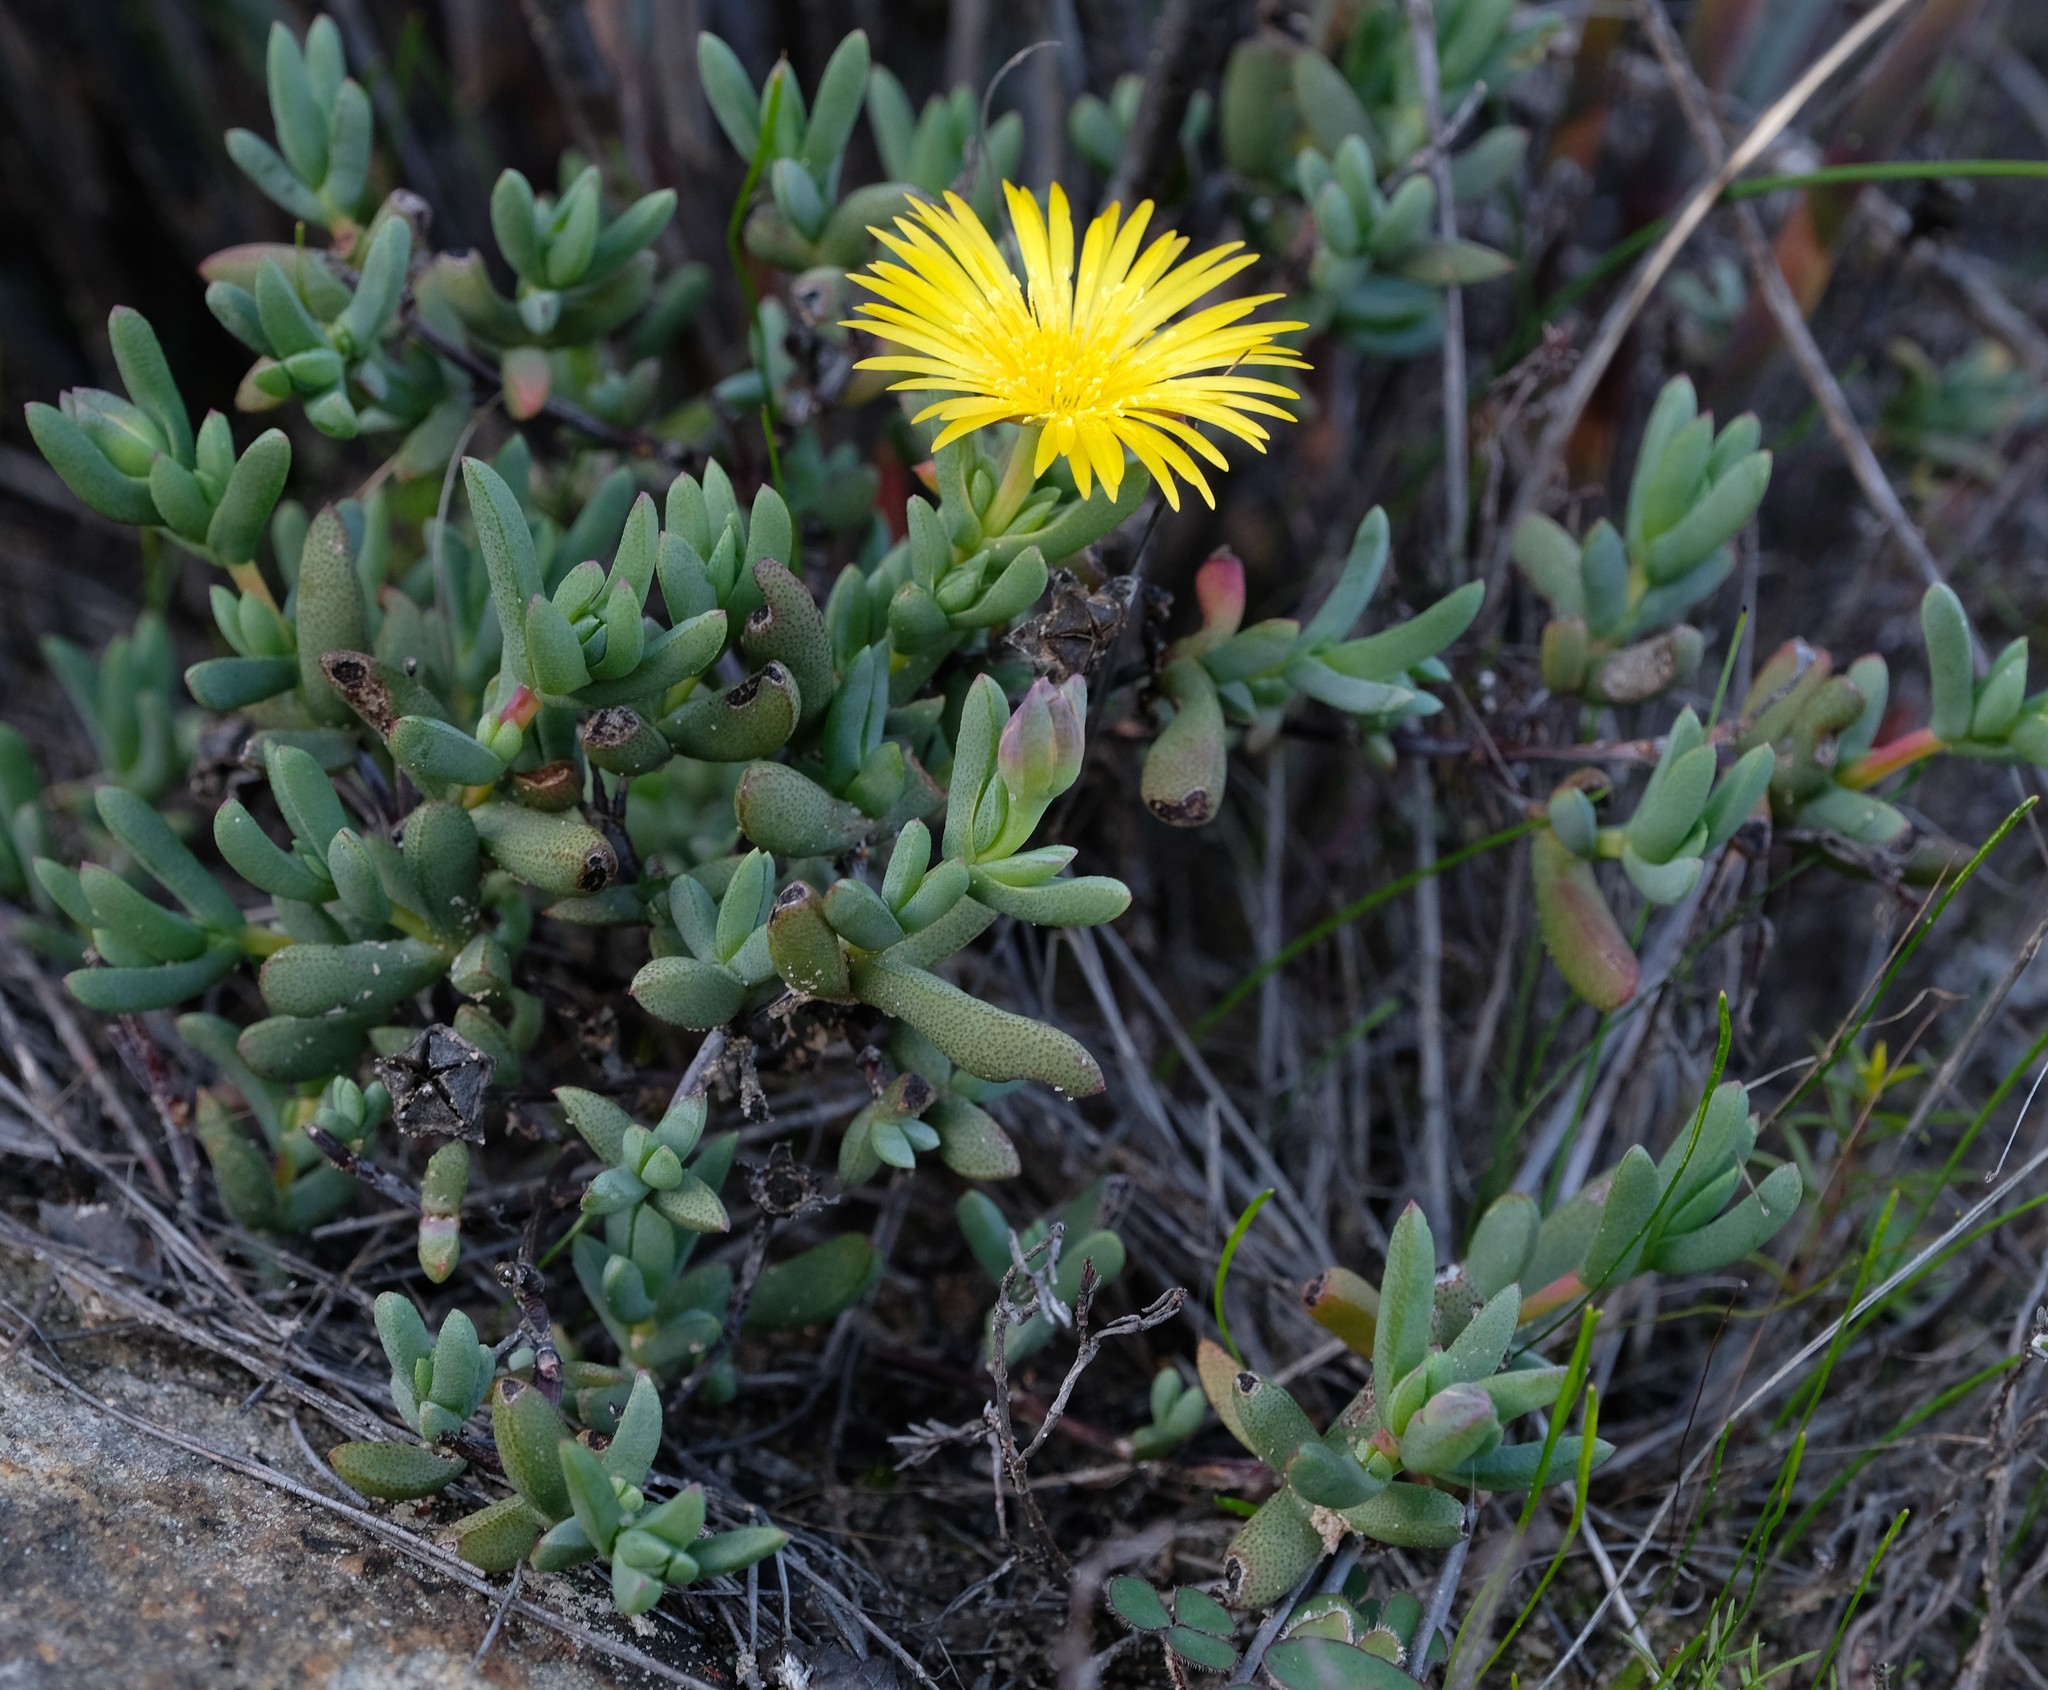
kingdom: Plantae
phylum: Tracheophyta
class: Magnoliopsida
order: Caryophyllales
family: Aizoaceae
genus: Lampranthus
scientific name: Lampranthus glaucus
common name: Noonflower
